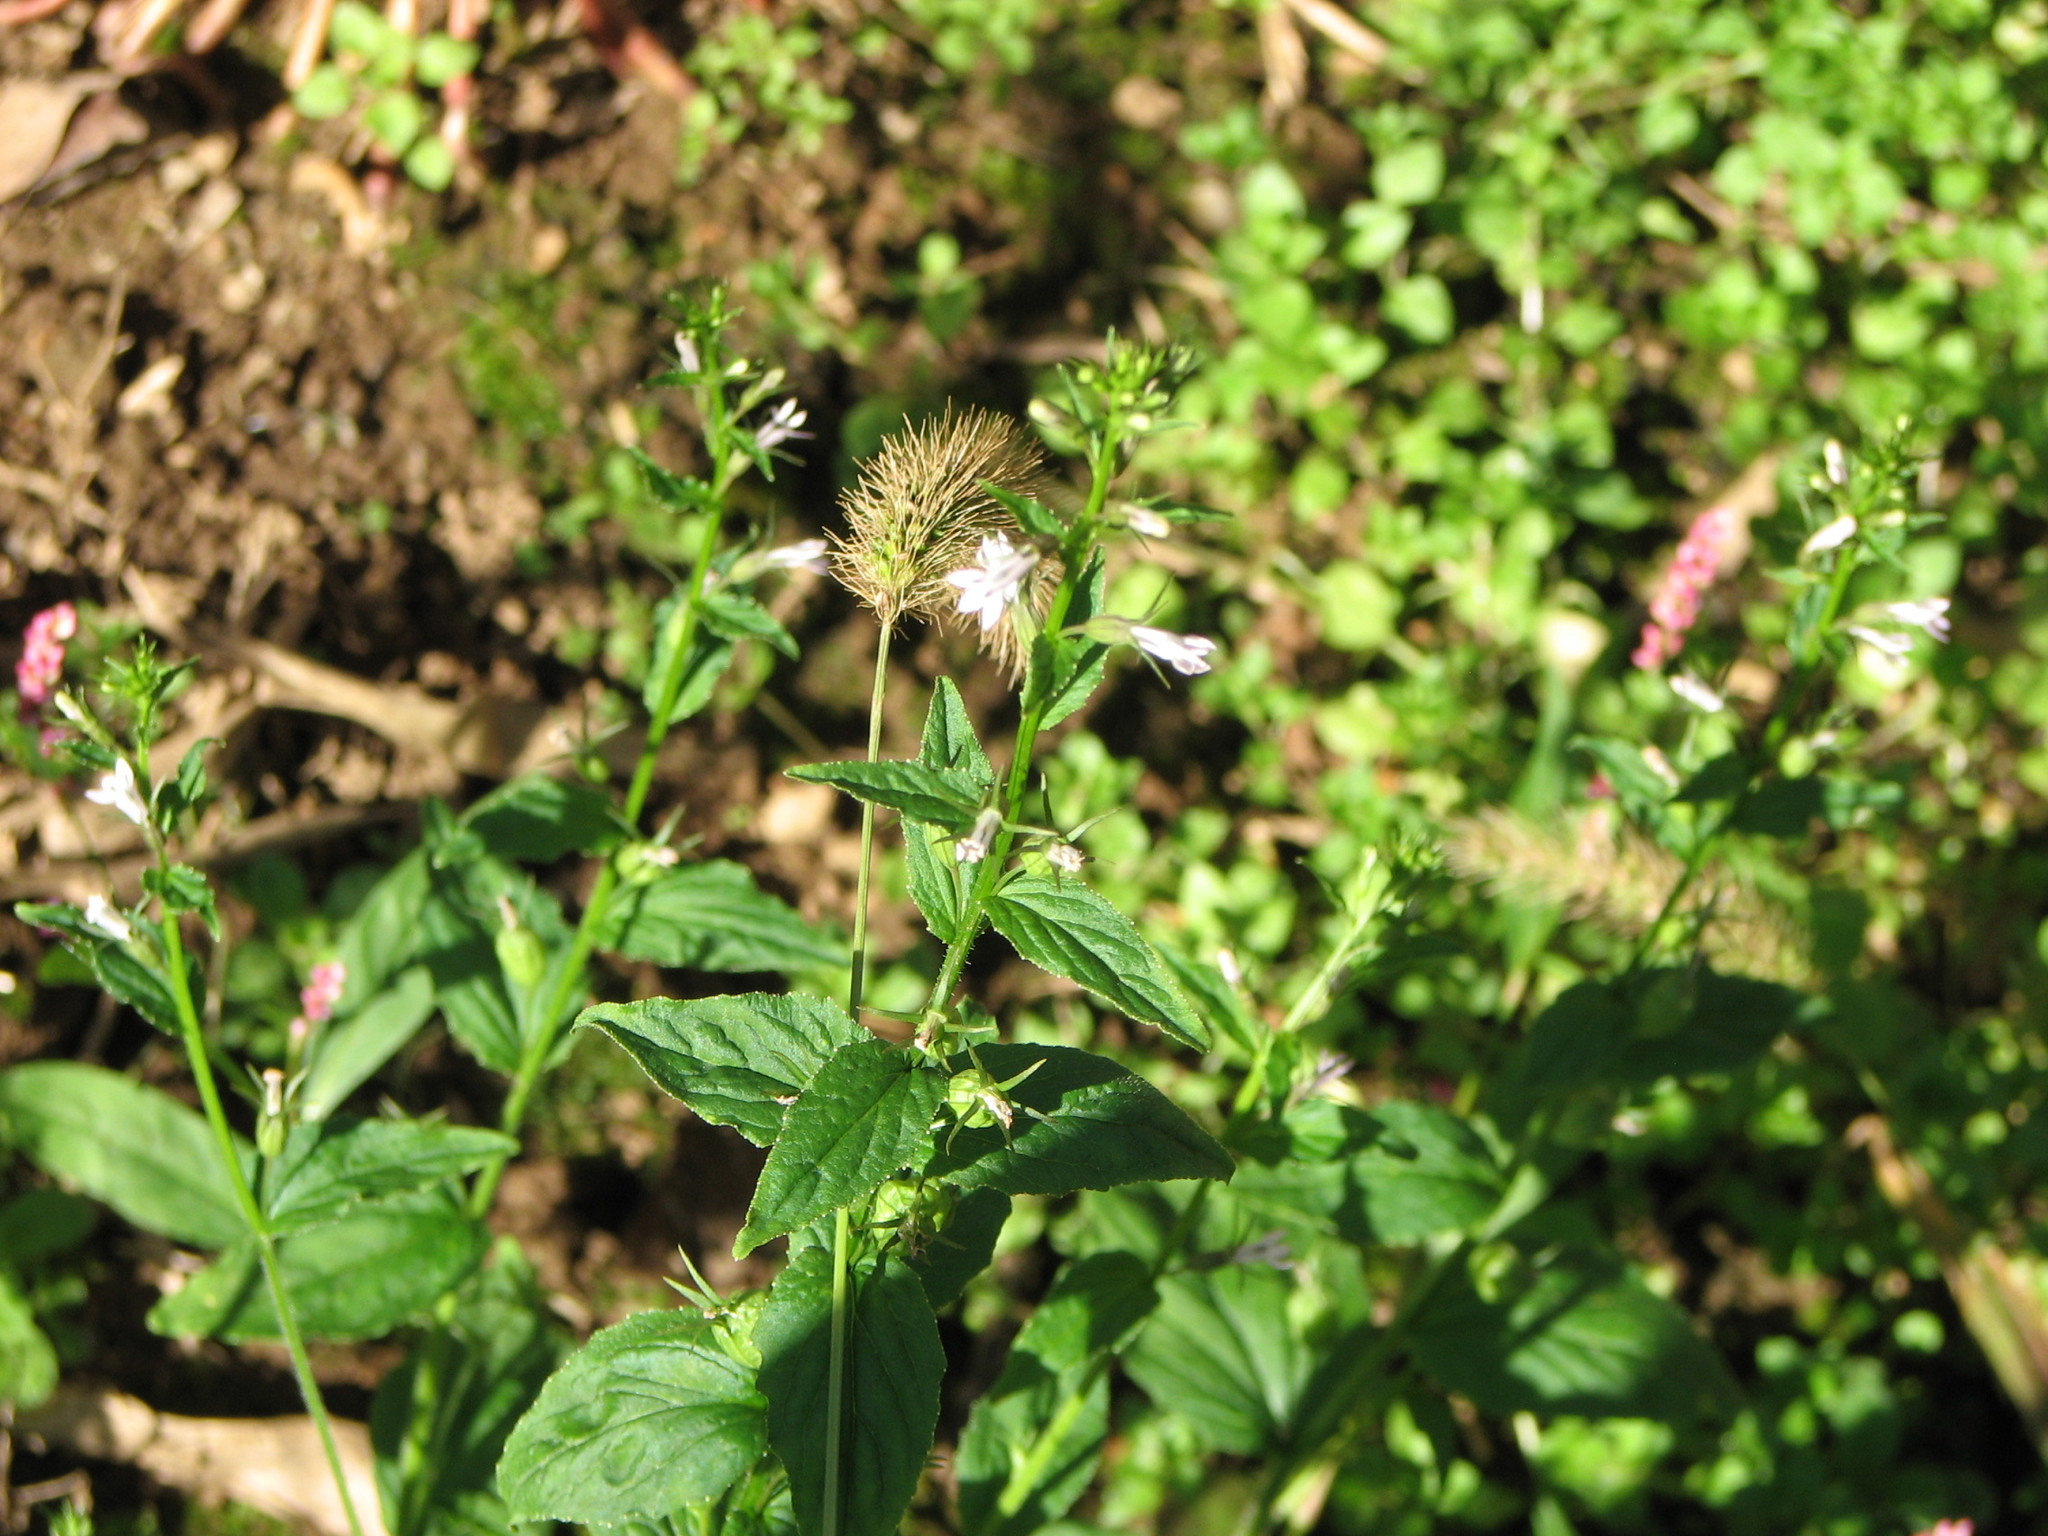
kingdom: Plantae
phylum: Tracheophyta
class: Magnoliopsida
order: Asterales
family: Campanulaceae
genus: Lobelia
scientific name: Lobelia inflata
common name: Indian tobacco
